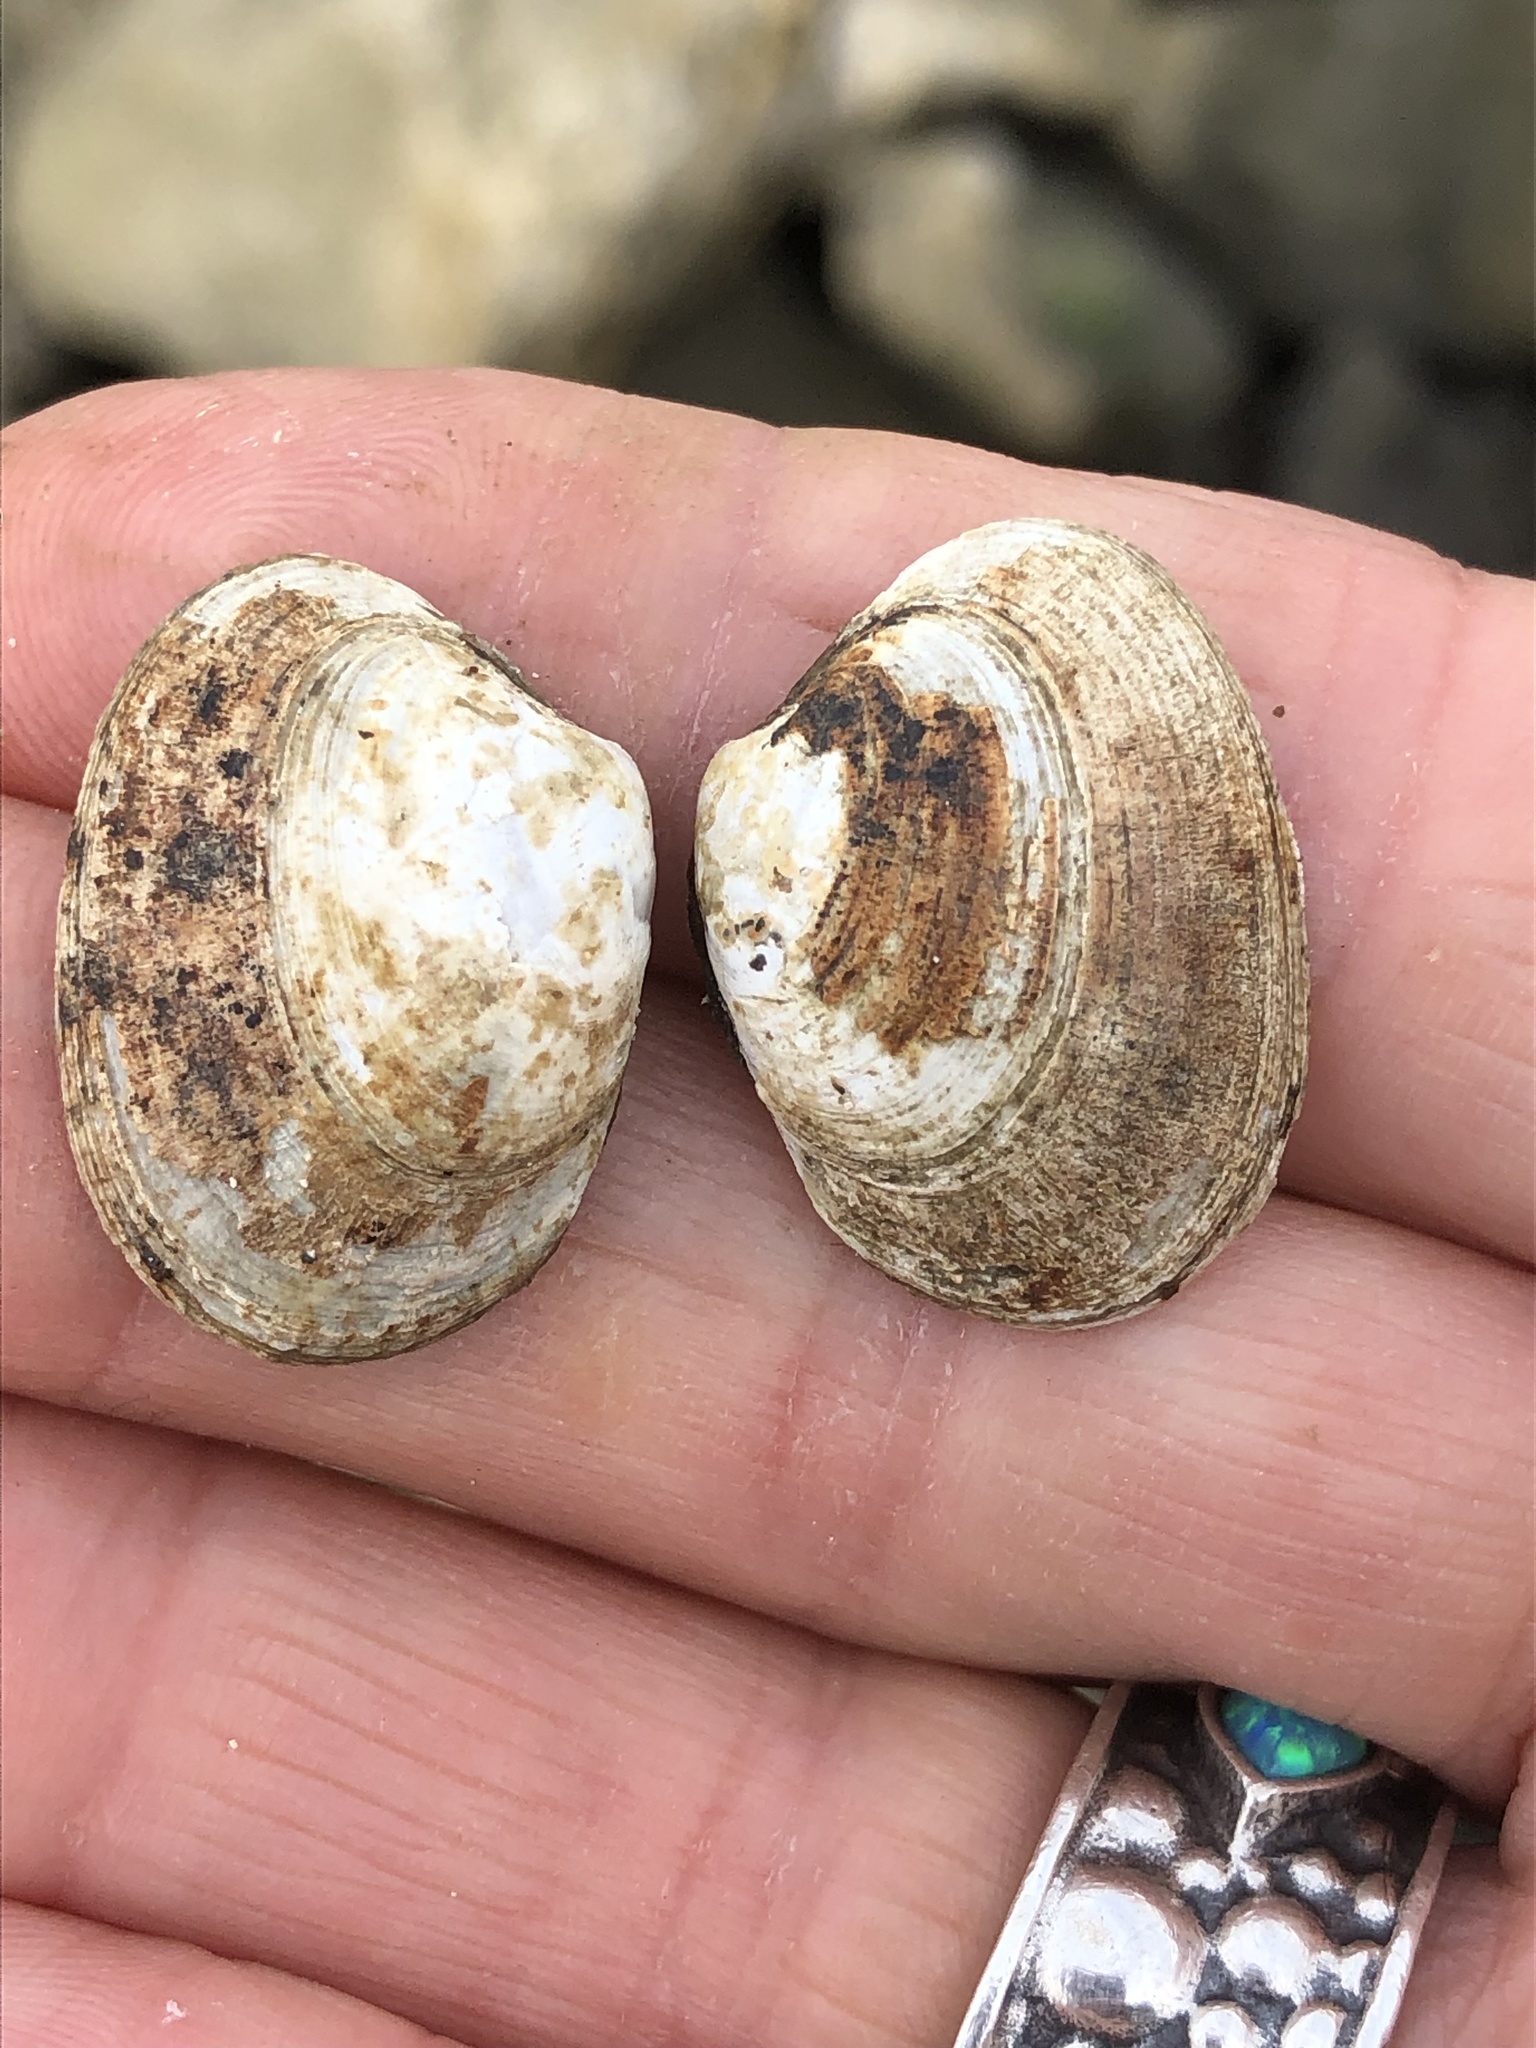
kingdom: Animalia
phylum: Mollusca
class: Bivalvia
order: Venerida
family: Veneridae
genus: Ruditapes
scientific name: Ruditapes philippinarum
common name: Manila clam
